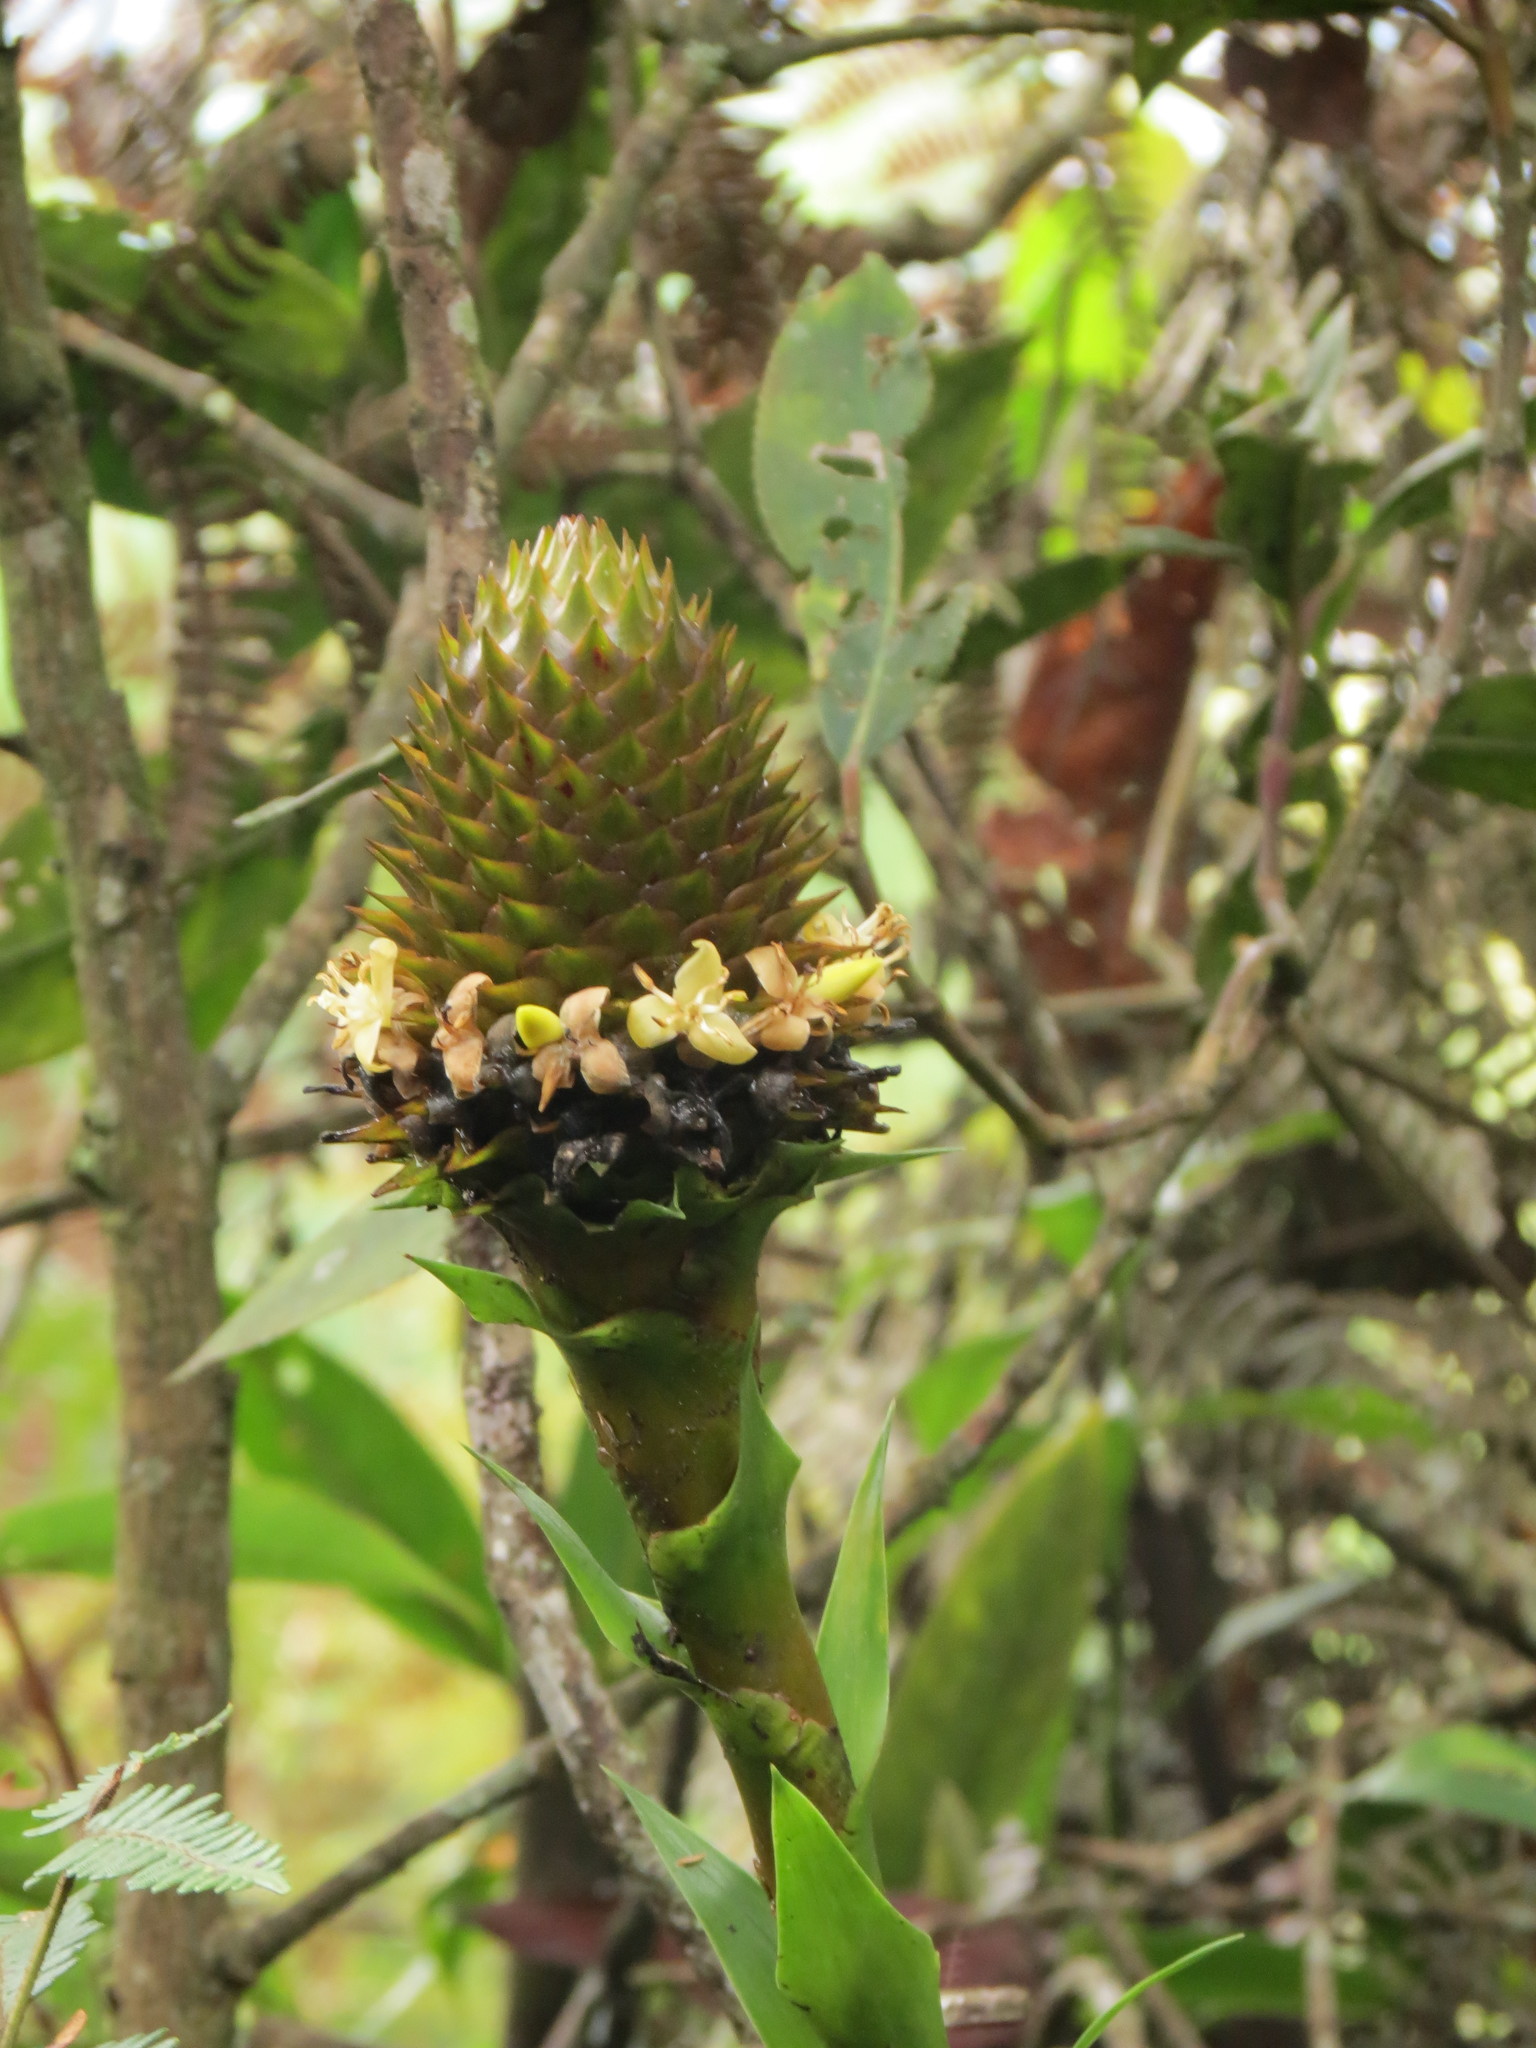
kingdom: Plantae
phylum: Tracheophyta
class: Liliopsida
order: Poales
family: Bromeliaceae
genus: Guzmania
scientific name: Guzmania triangularis
